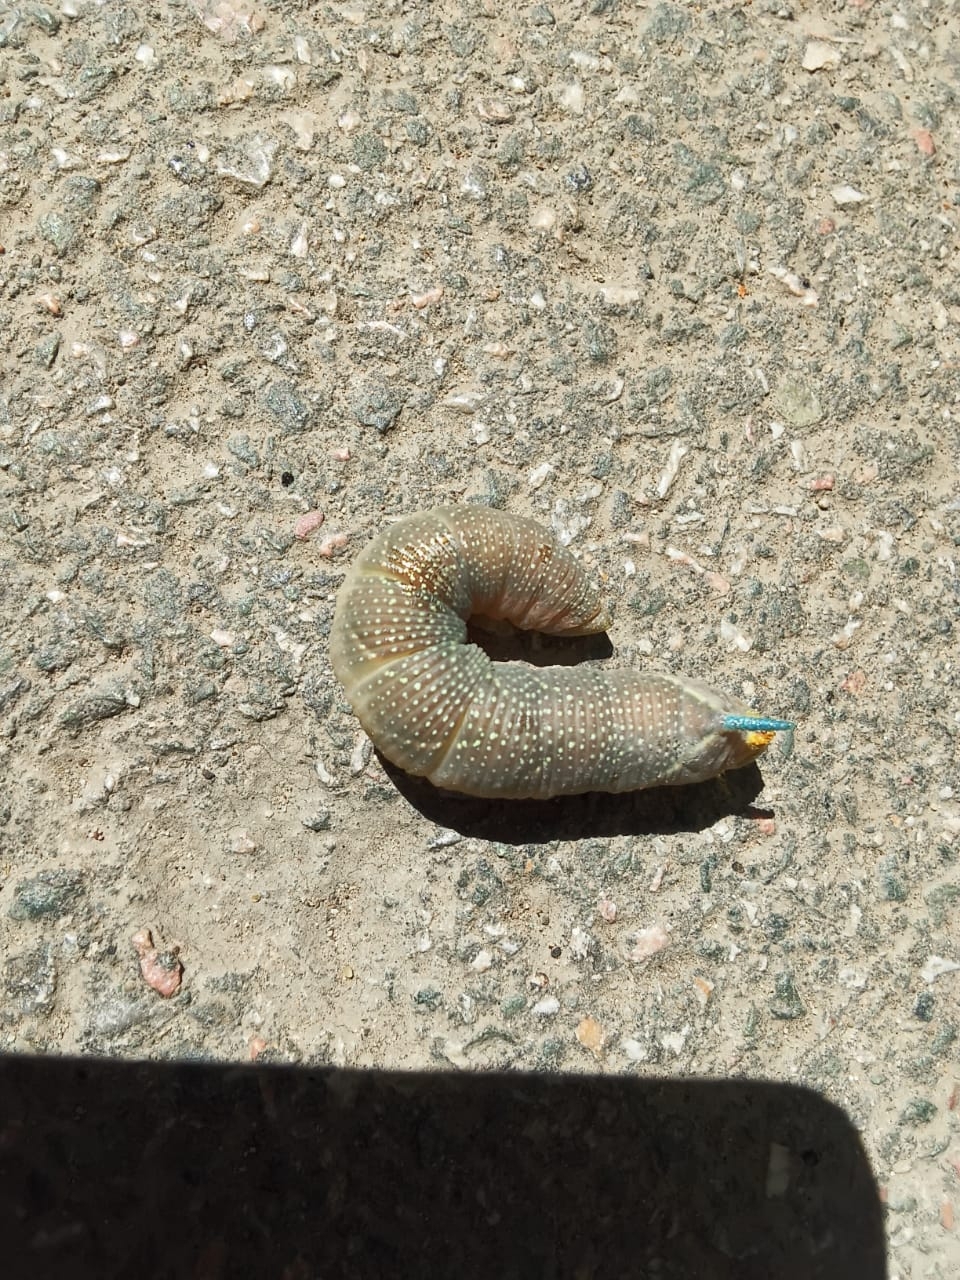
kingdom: Animalia
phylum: Arthropoda
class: Insecta
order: Lepidoptera
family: Sphingidae
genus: Mimas
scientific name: Mimas tiliae
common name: Lime hawk-moth
